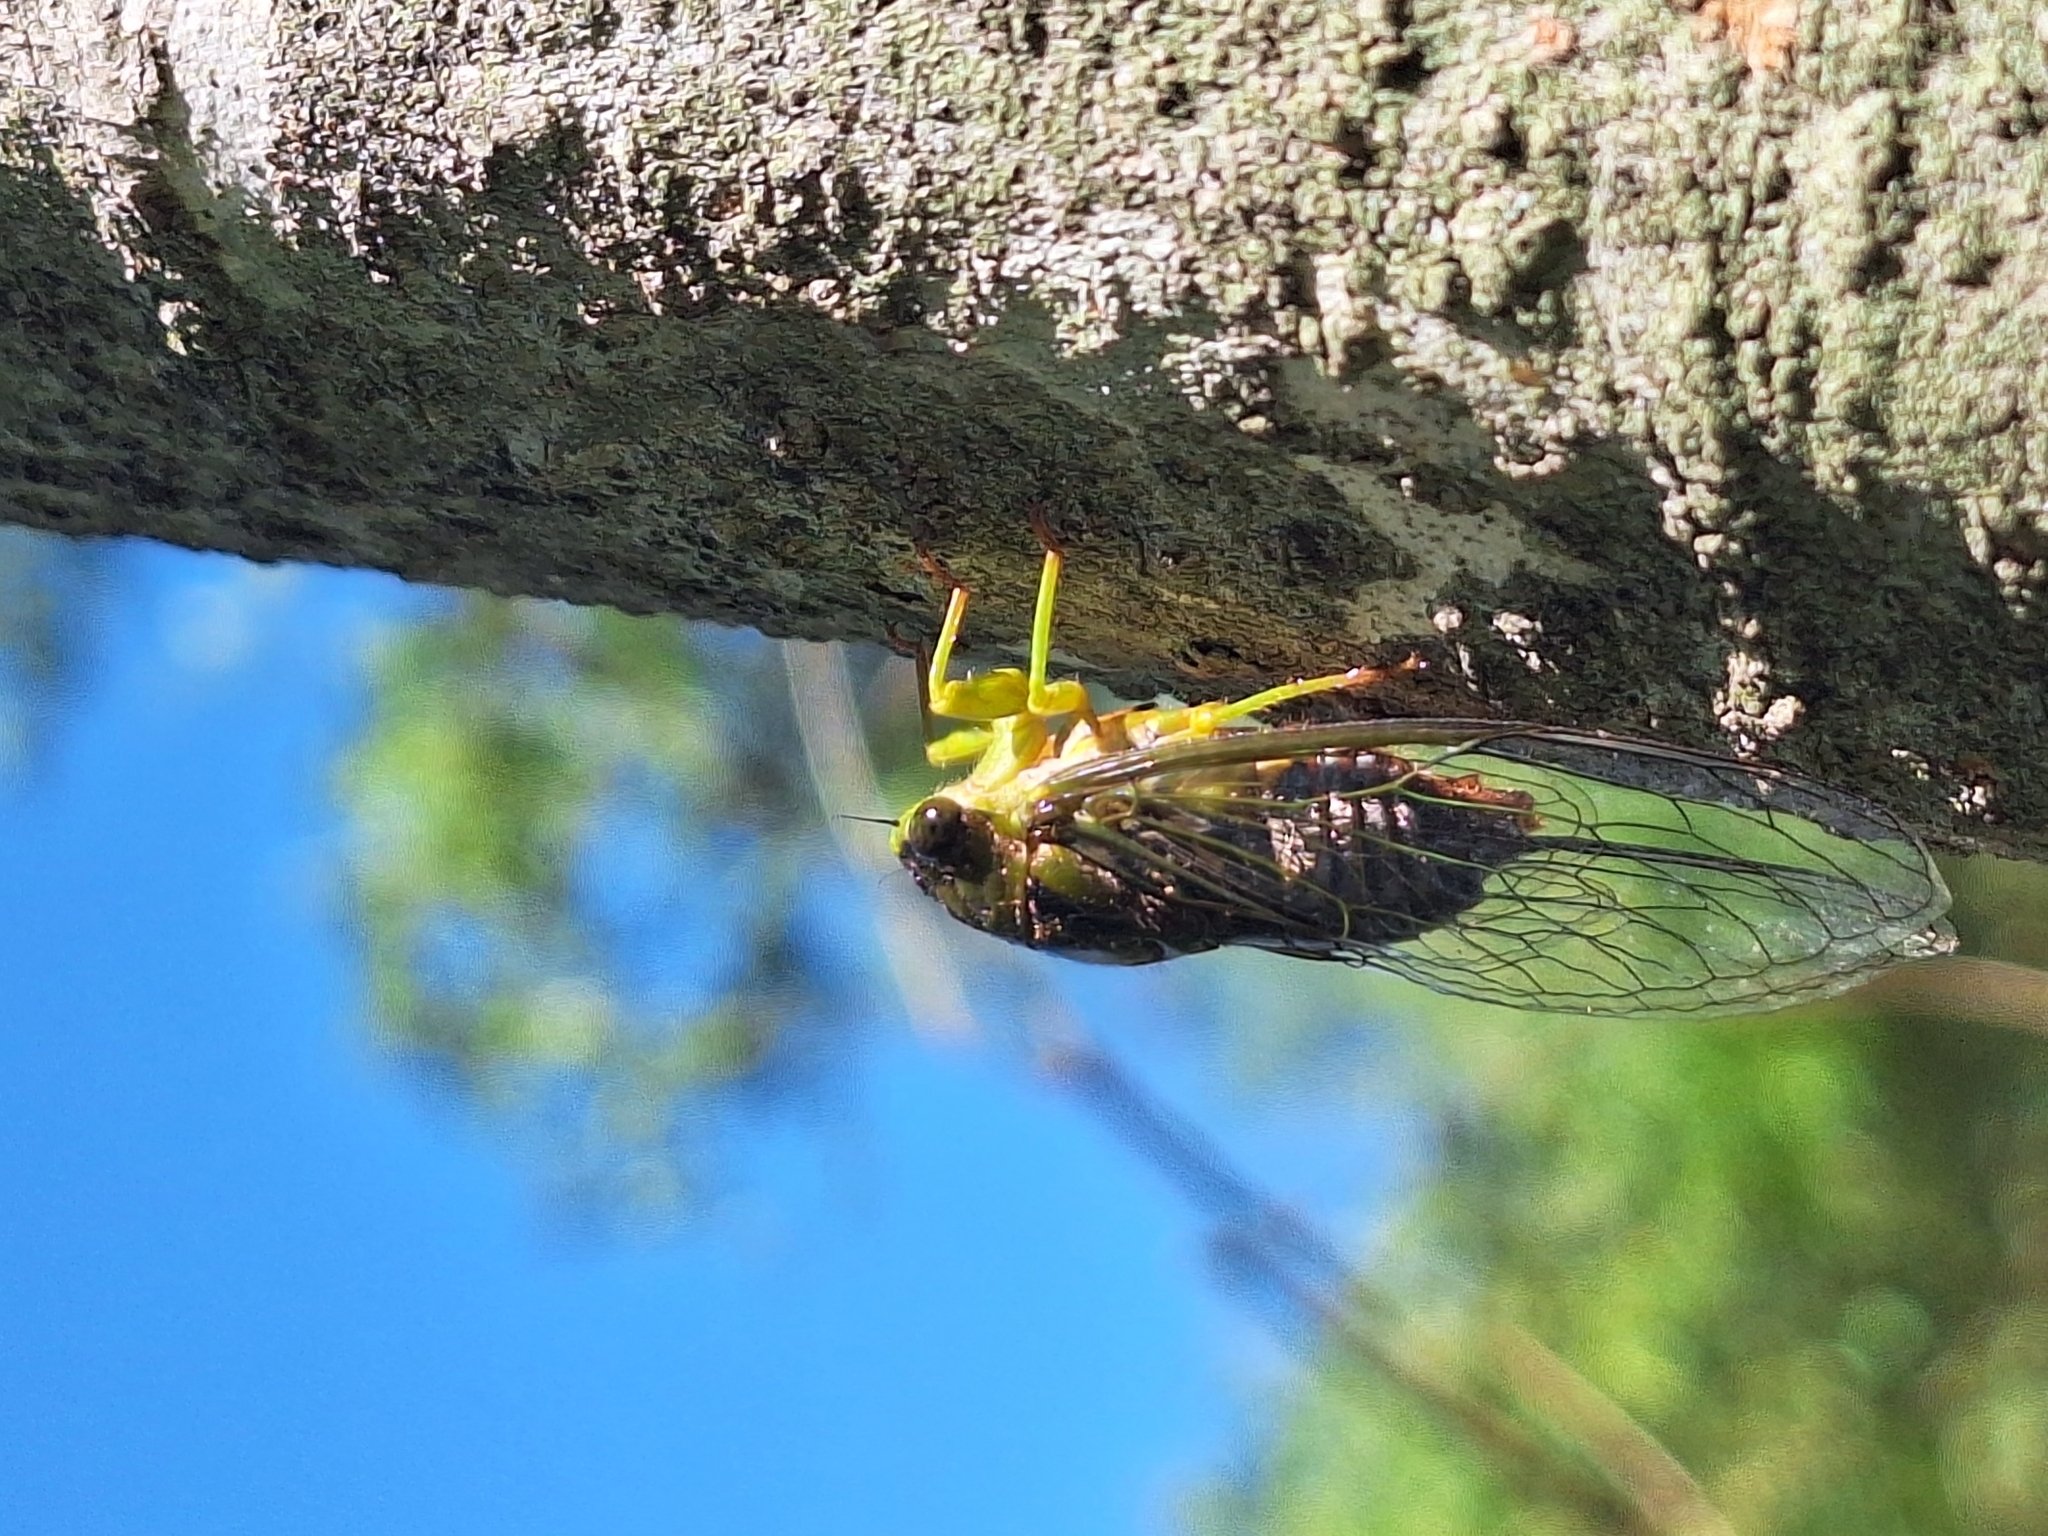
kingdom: Animalia
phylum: Arthropoda
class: Insecta
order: Hemiptera
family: Cicadidae
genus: Acanthoventris
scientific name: Acanthoventris drewseni
